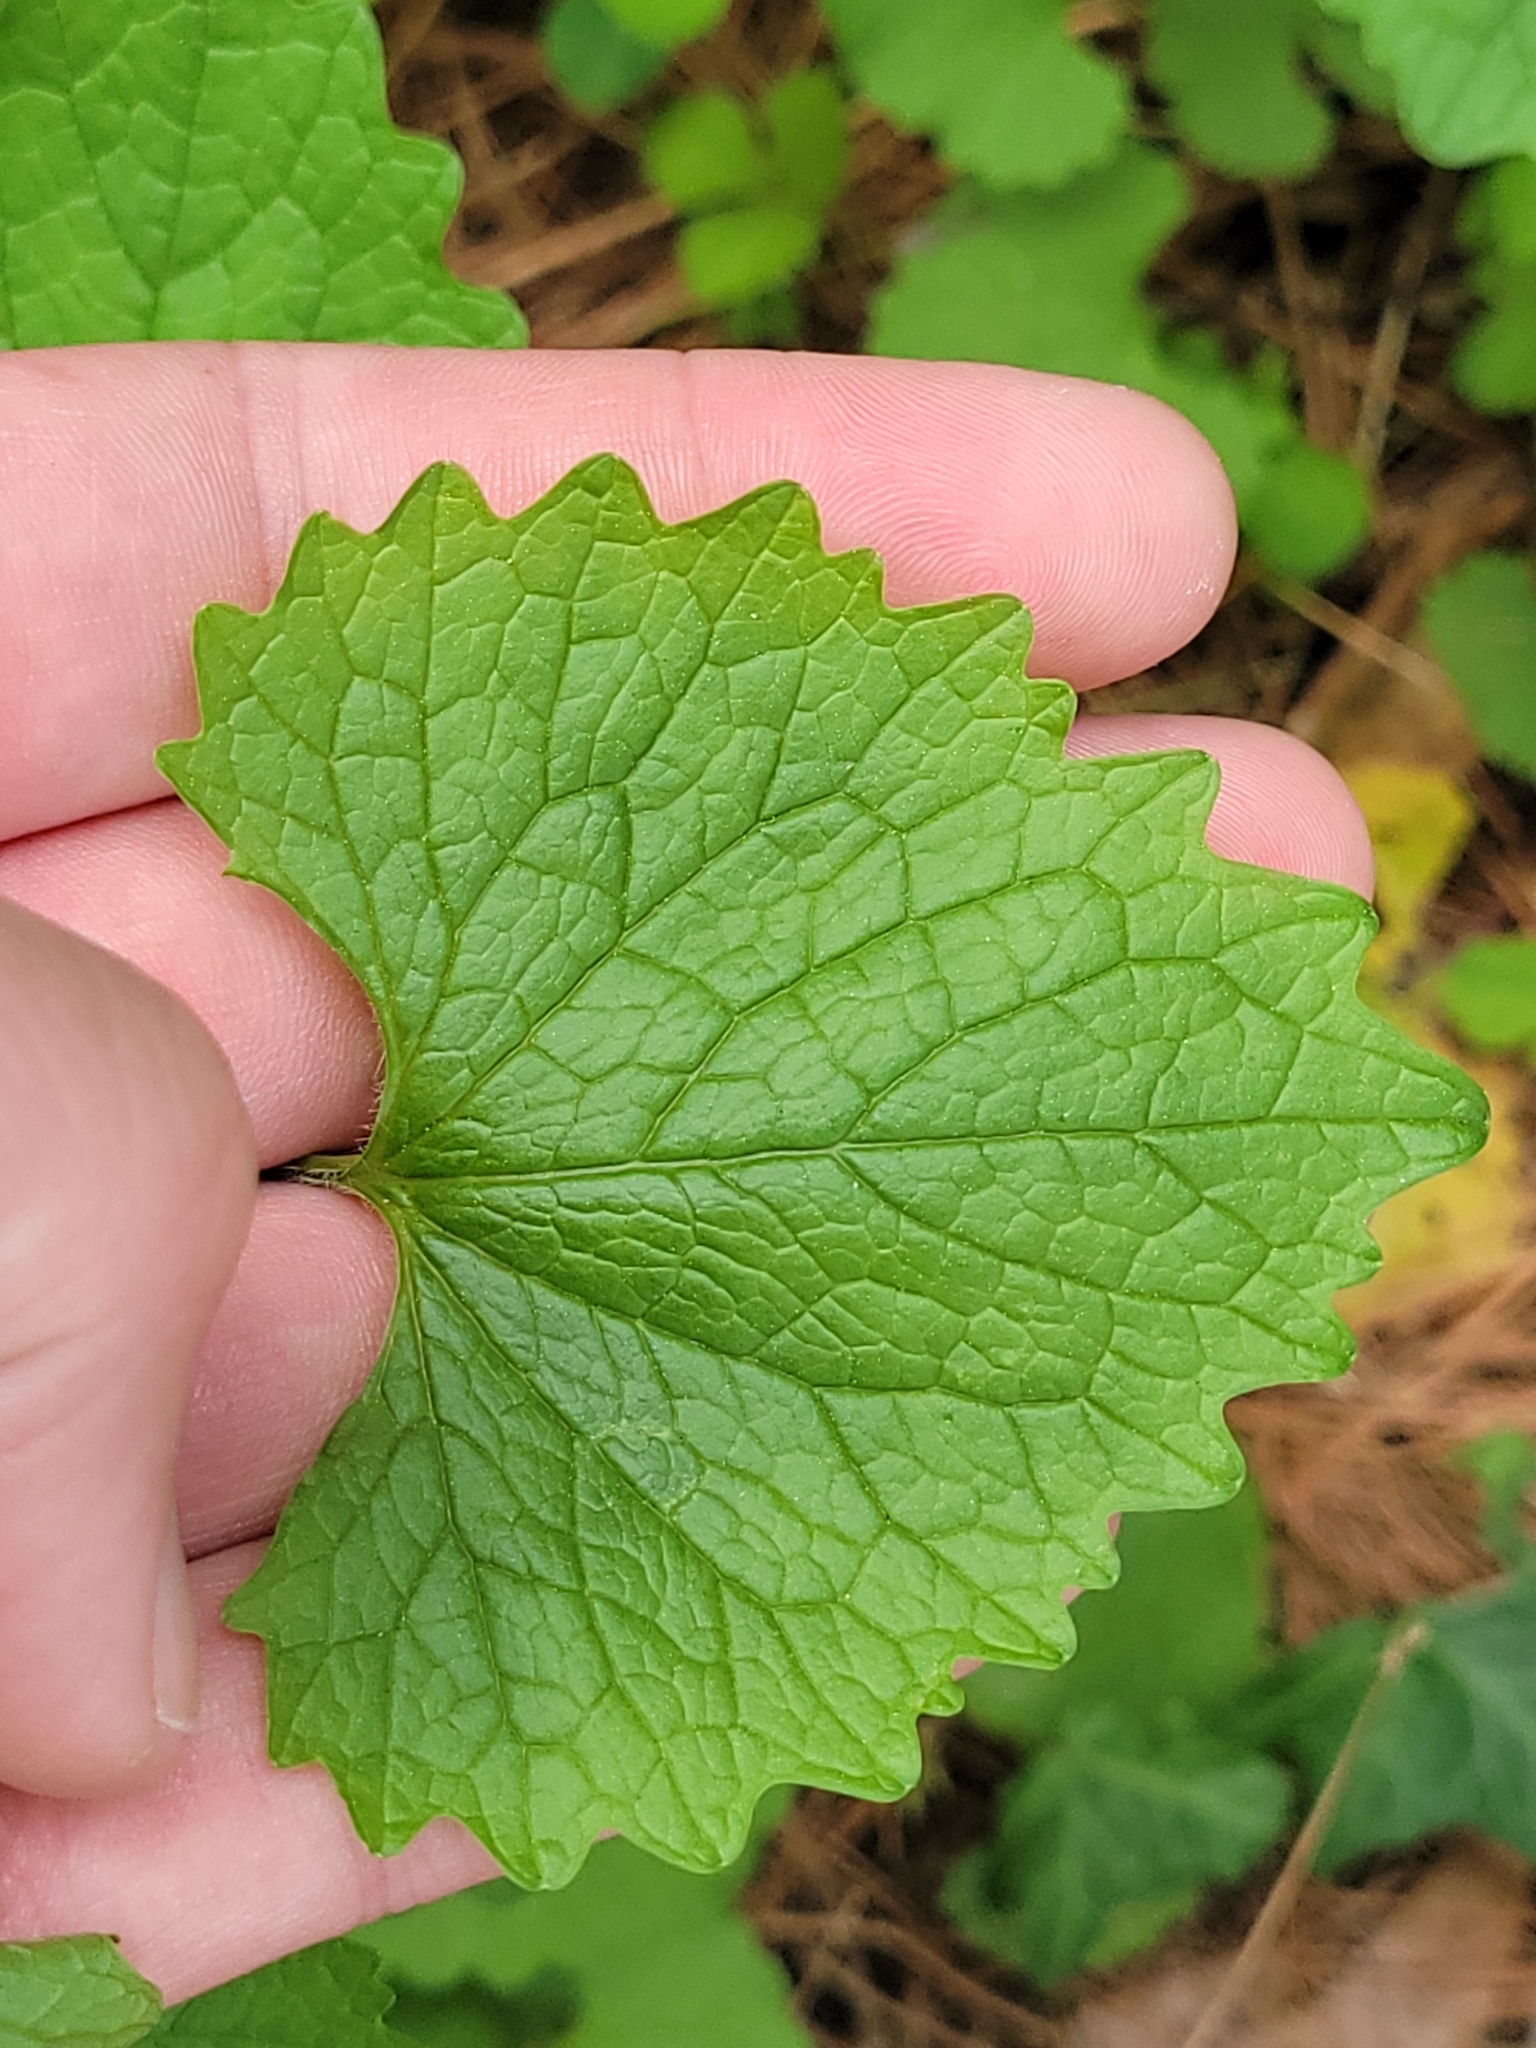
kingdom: Plantae
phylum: Tracheophyta
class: Magnoliopsida
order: Brassicales
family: Brassicaceae
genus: Alliaria
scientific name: Alliaria petiolata
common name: Garlic mustard
